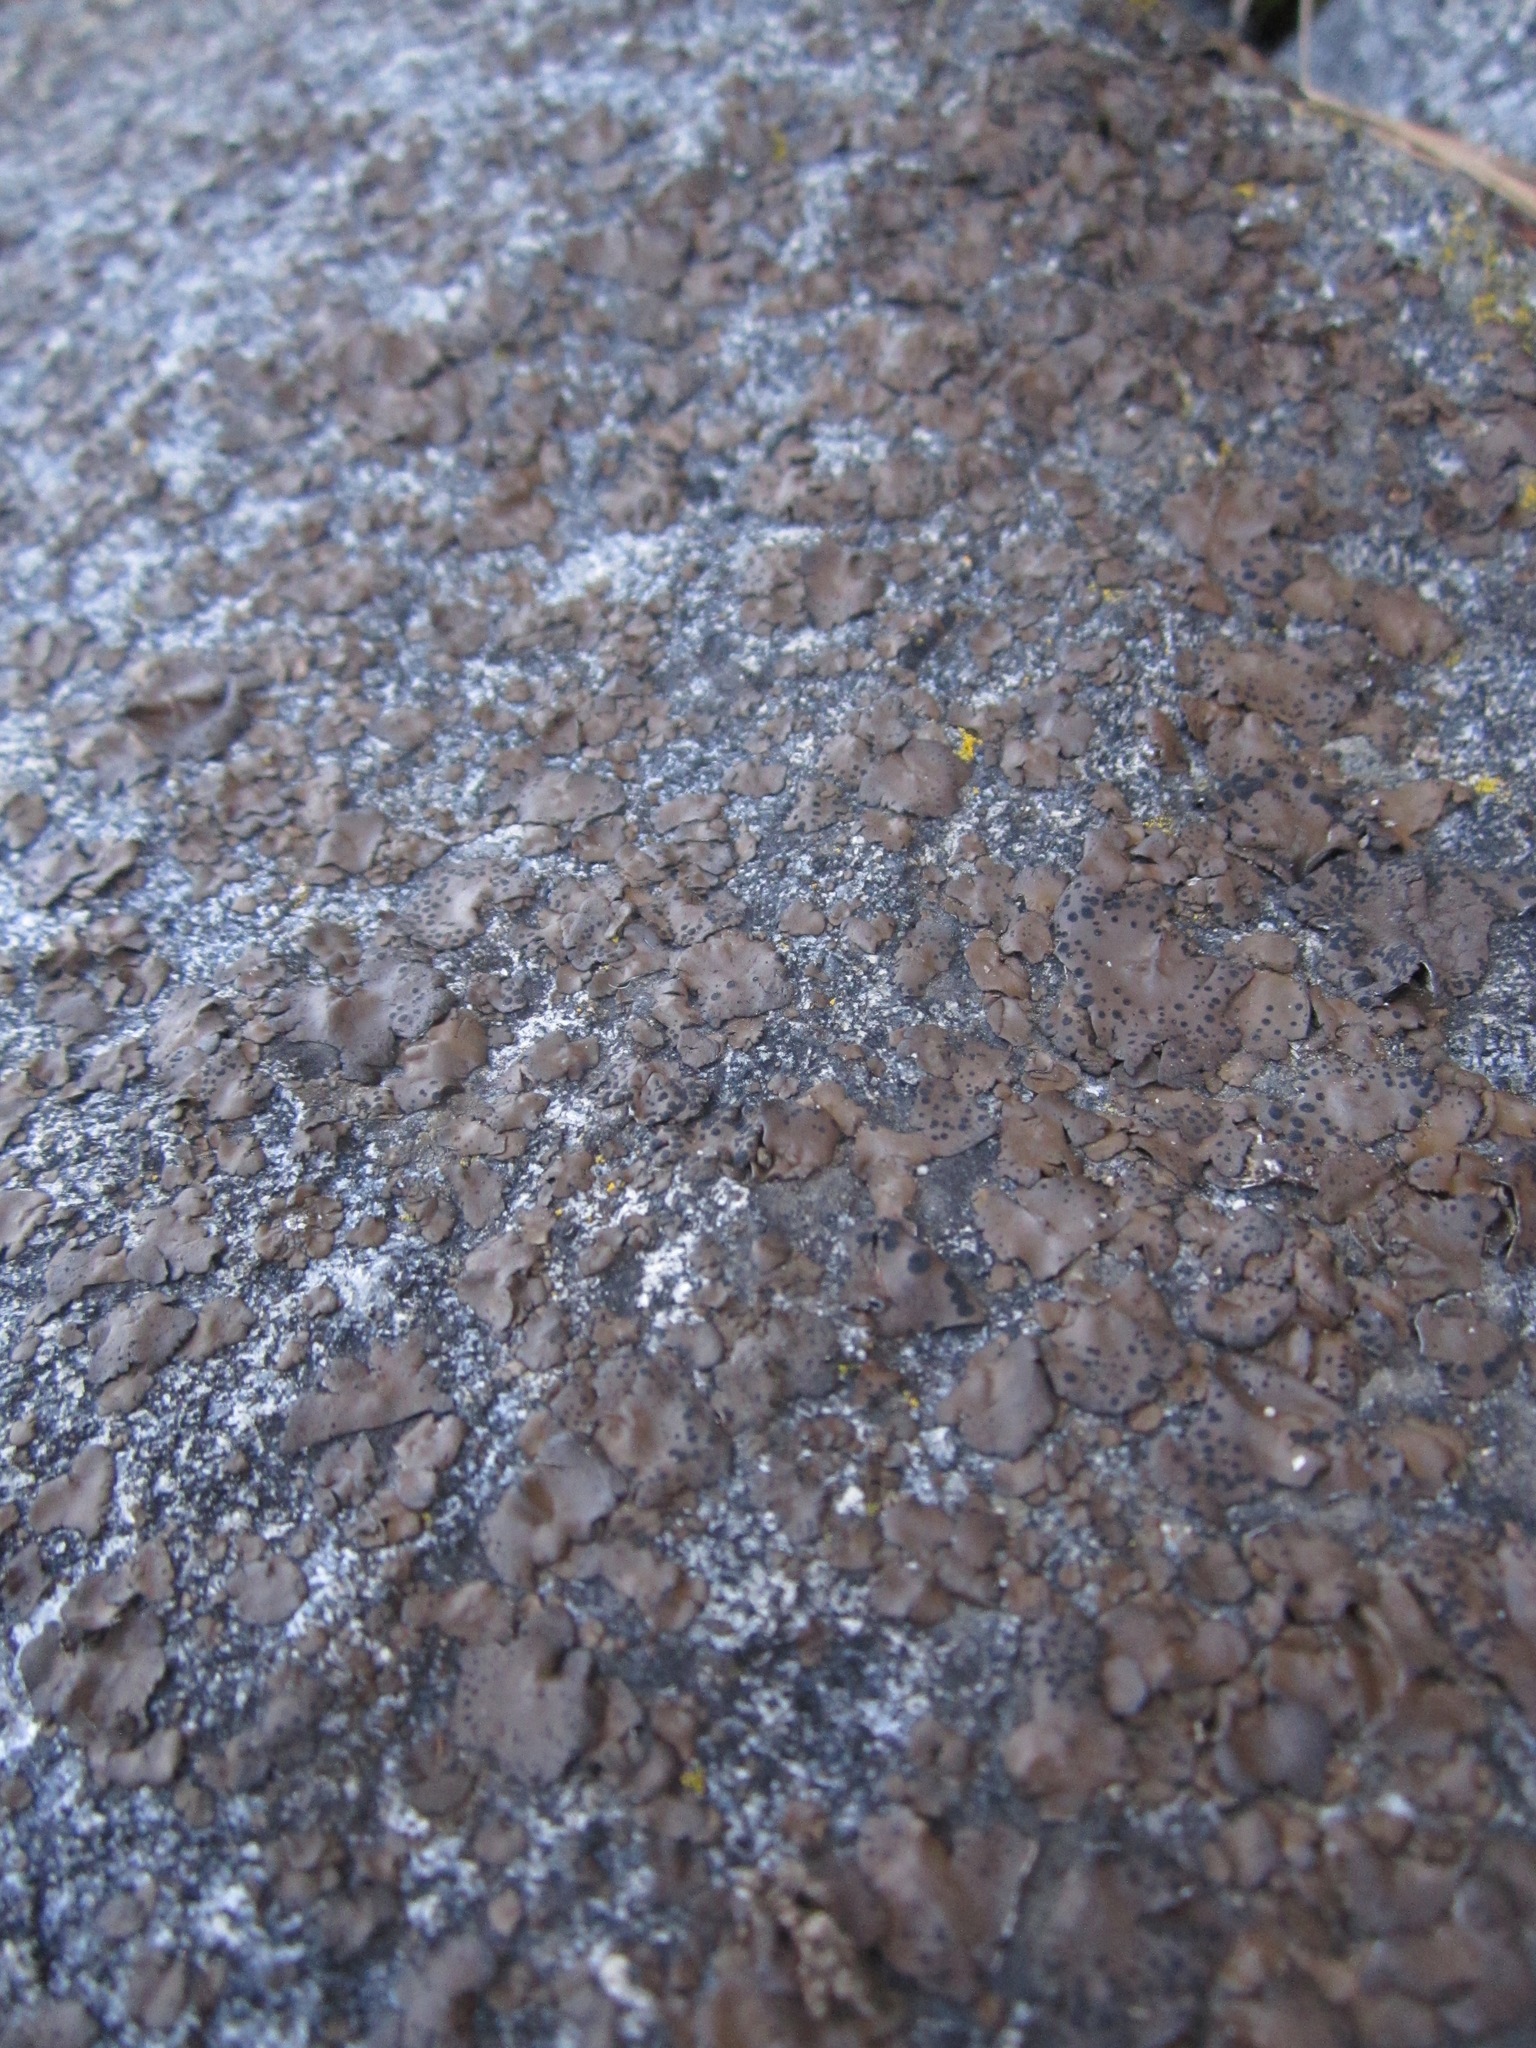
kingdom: Fungi
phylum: Ascomycota
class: Lecanoromycetes
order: Umbilicariales
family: Umbilicariaceae
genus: Umbilicaria
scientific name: Umbilicaria phaea
